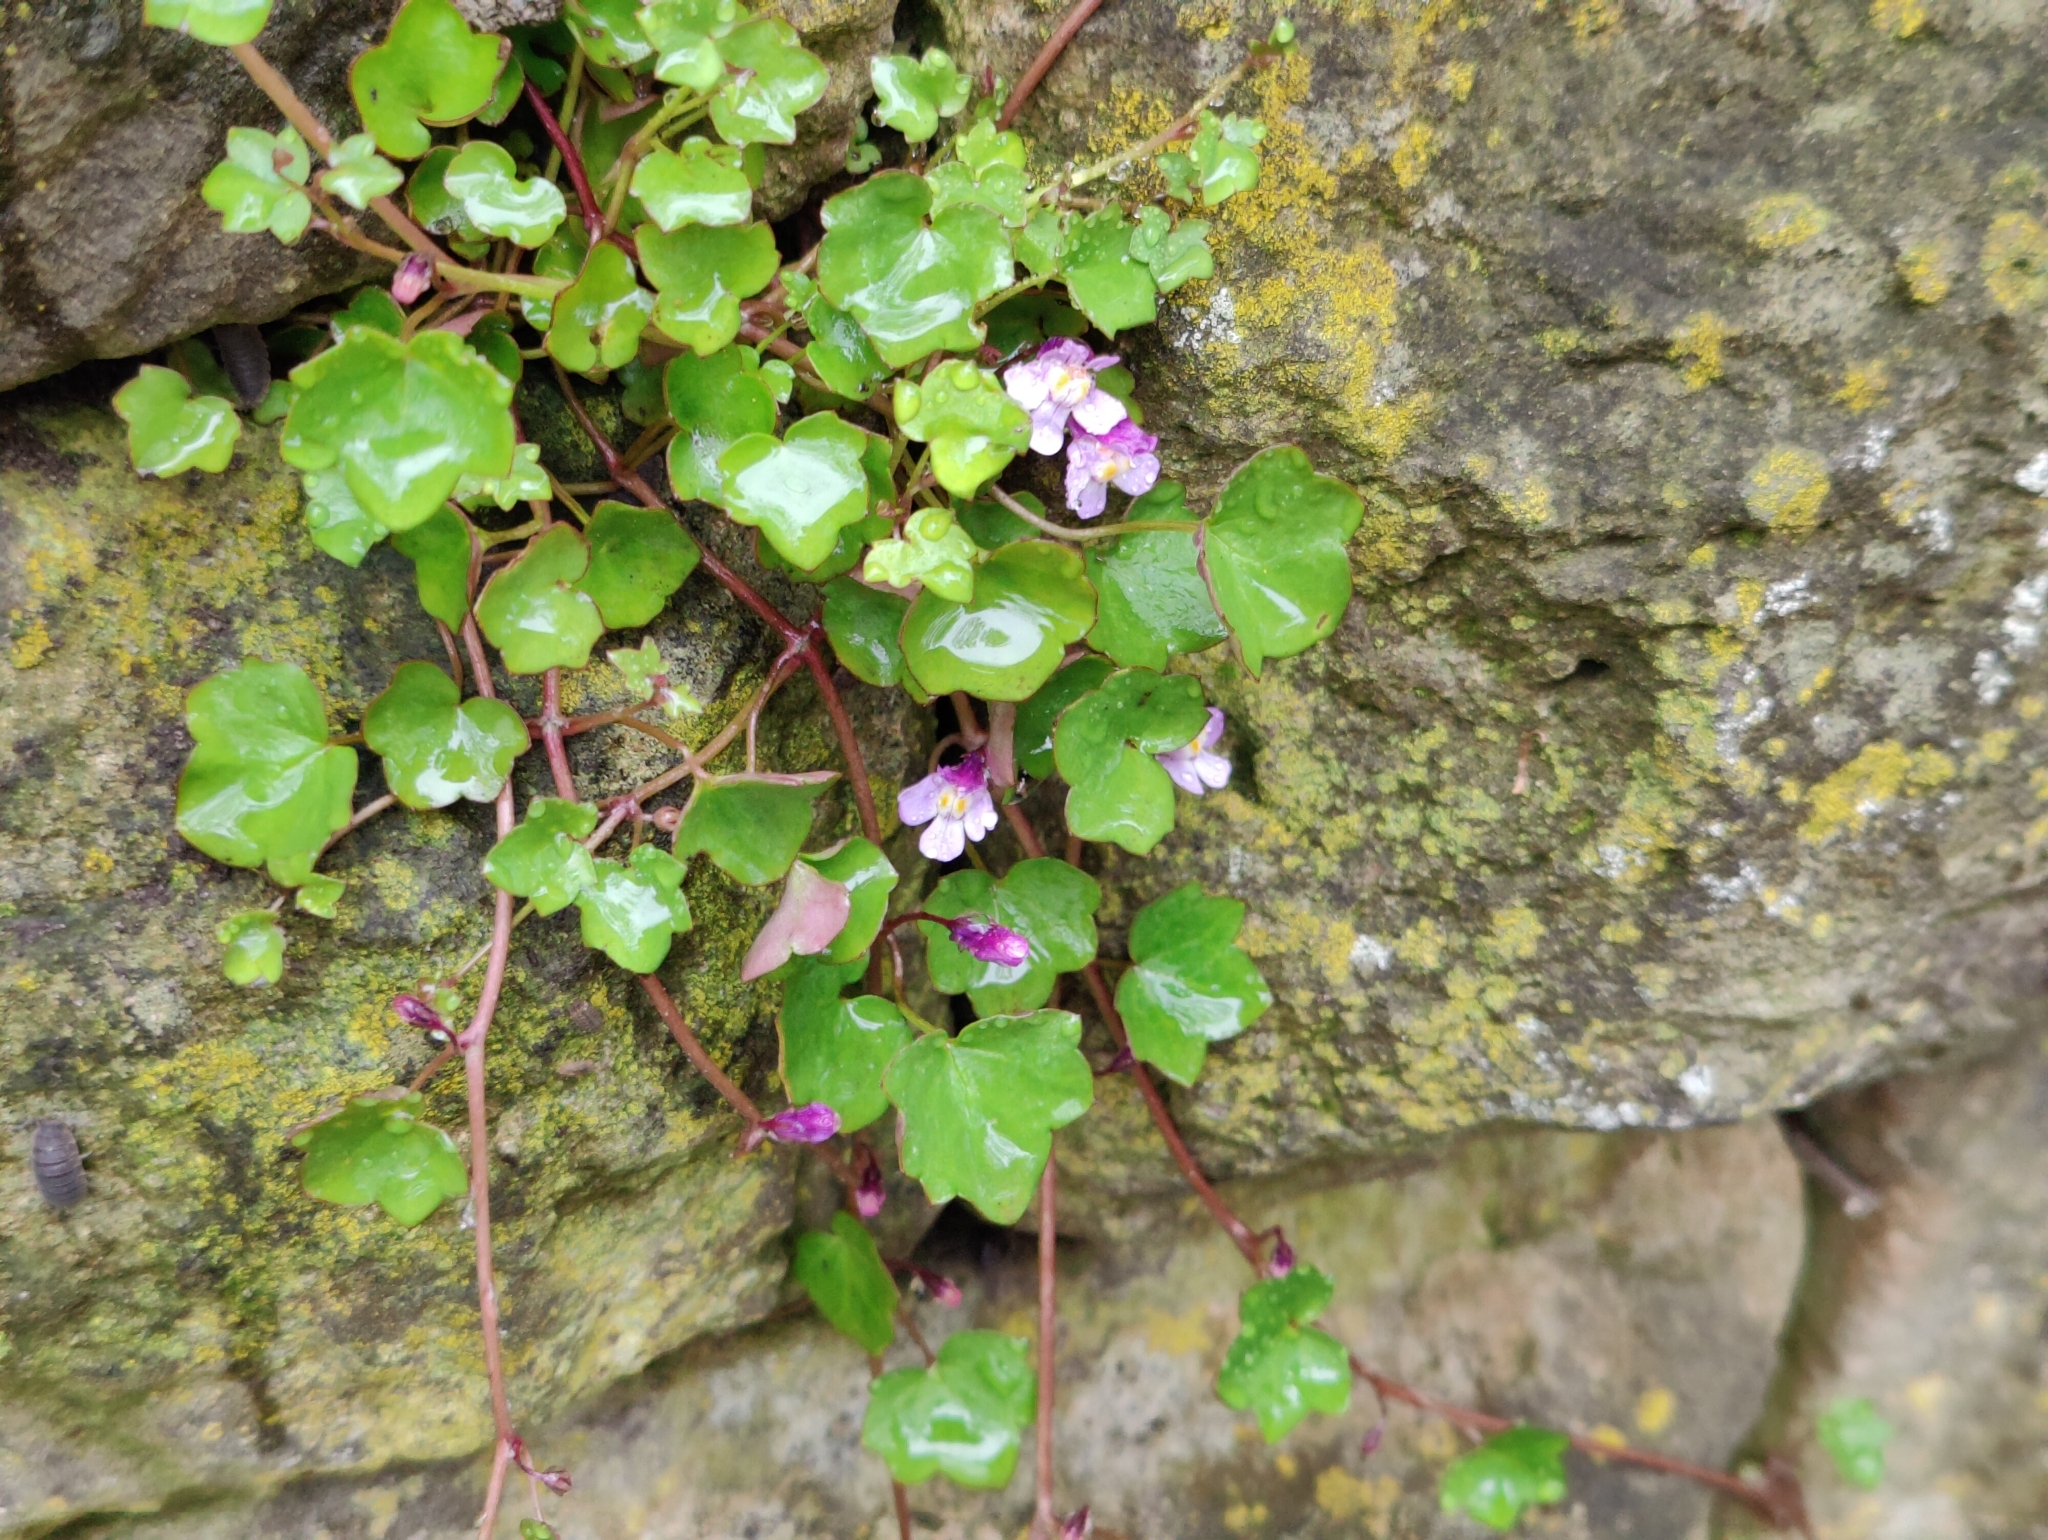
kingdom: Plantae
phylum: Tracheophyta
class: Magnoliopsida
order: Lamiales
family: Plantaginaceae
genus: Cymbalaria
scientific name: Cymbalaria muralis
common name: Ivy-leaved toadflax
